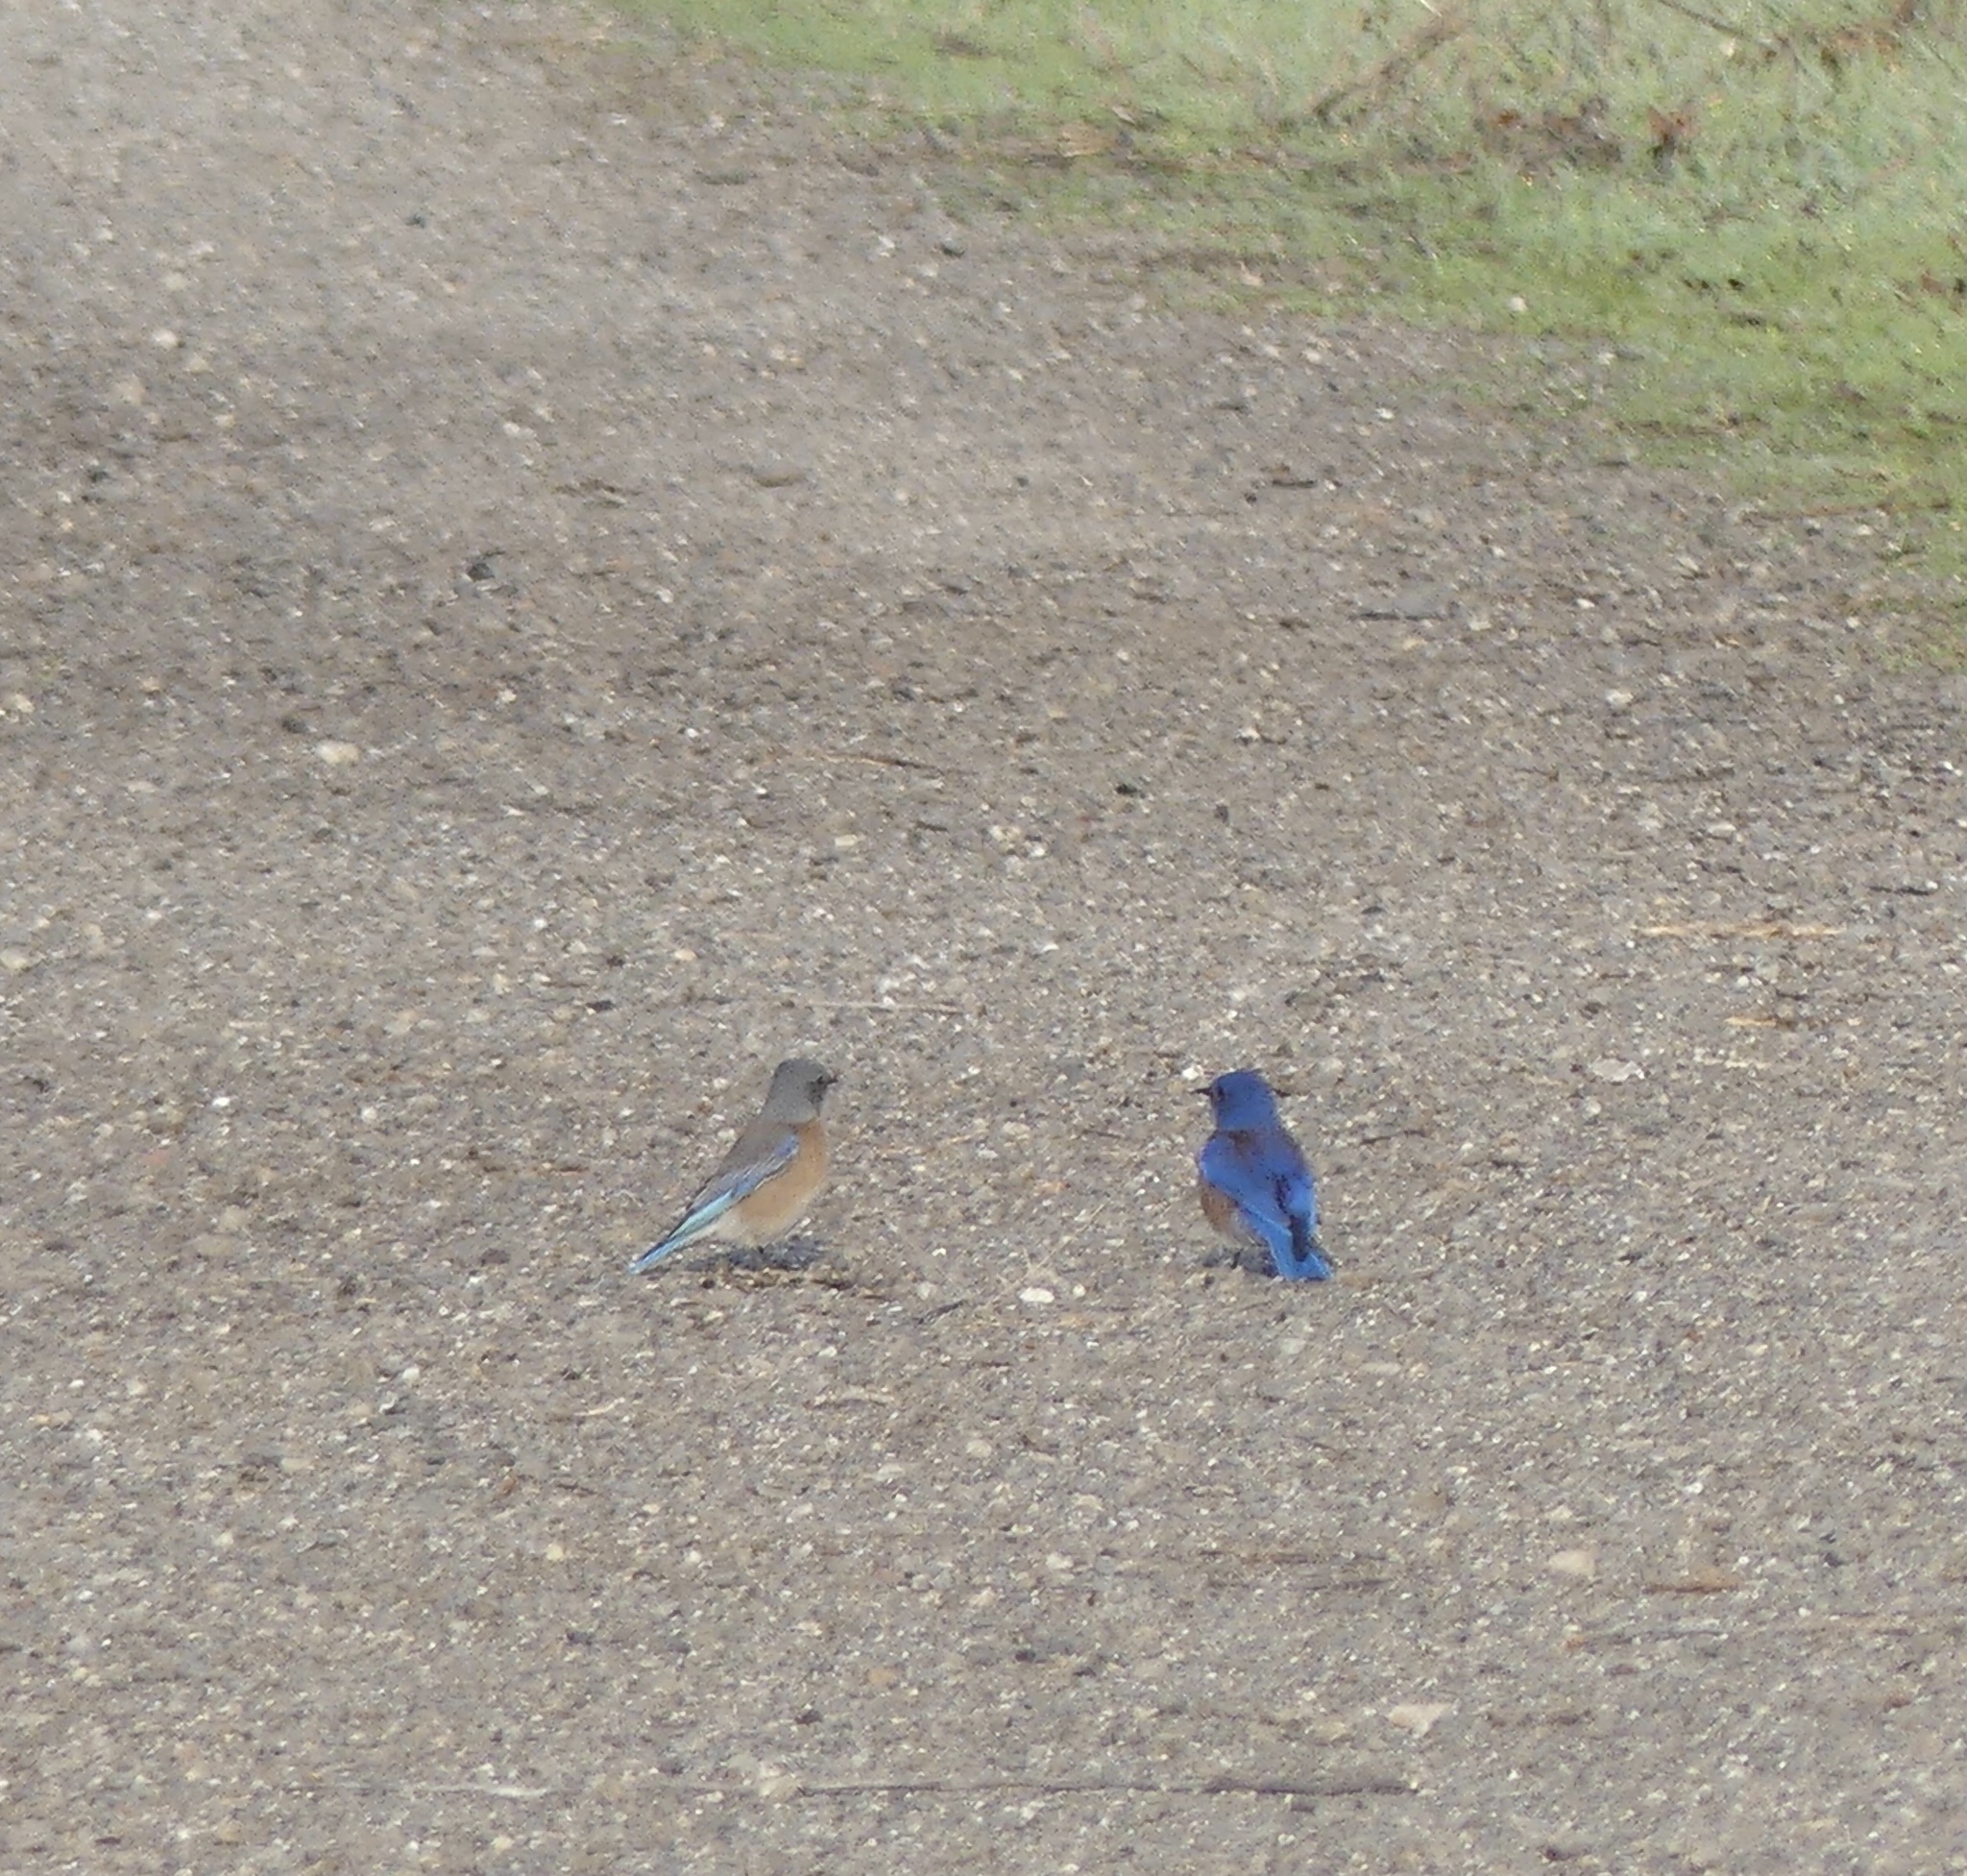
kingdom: Animalia
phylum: Chordata
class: Aves
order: Passeriformes
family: Turdidae
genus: Sialia
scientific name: Sialia mexicana
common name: Western bluebird
